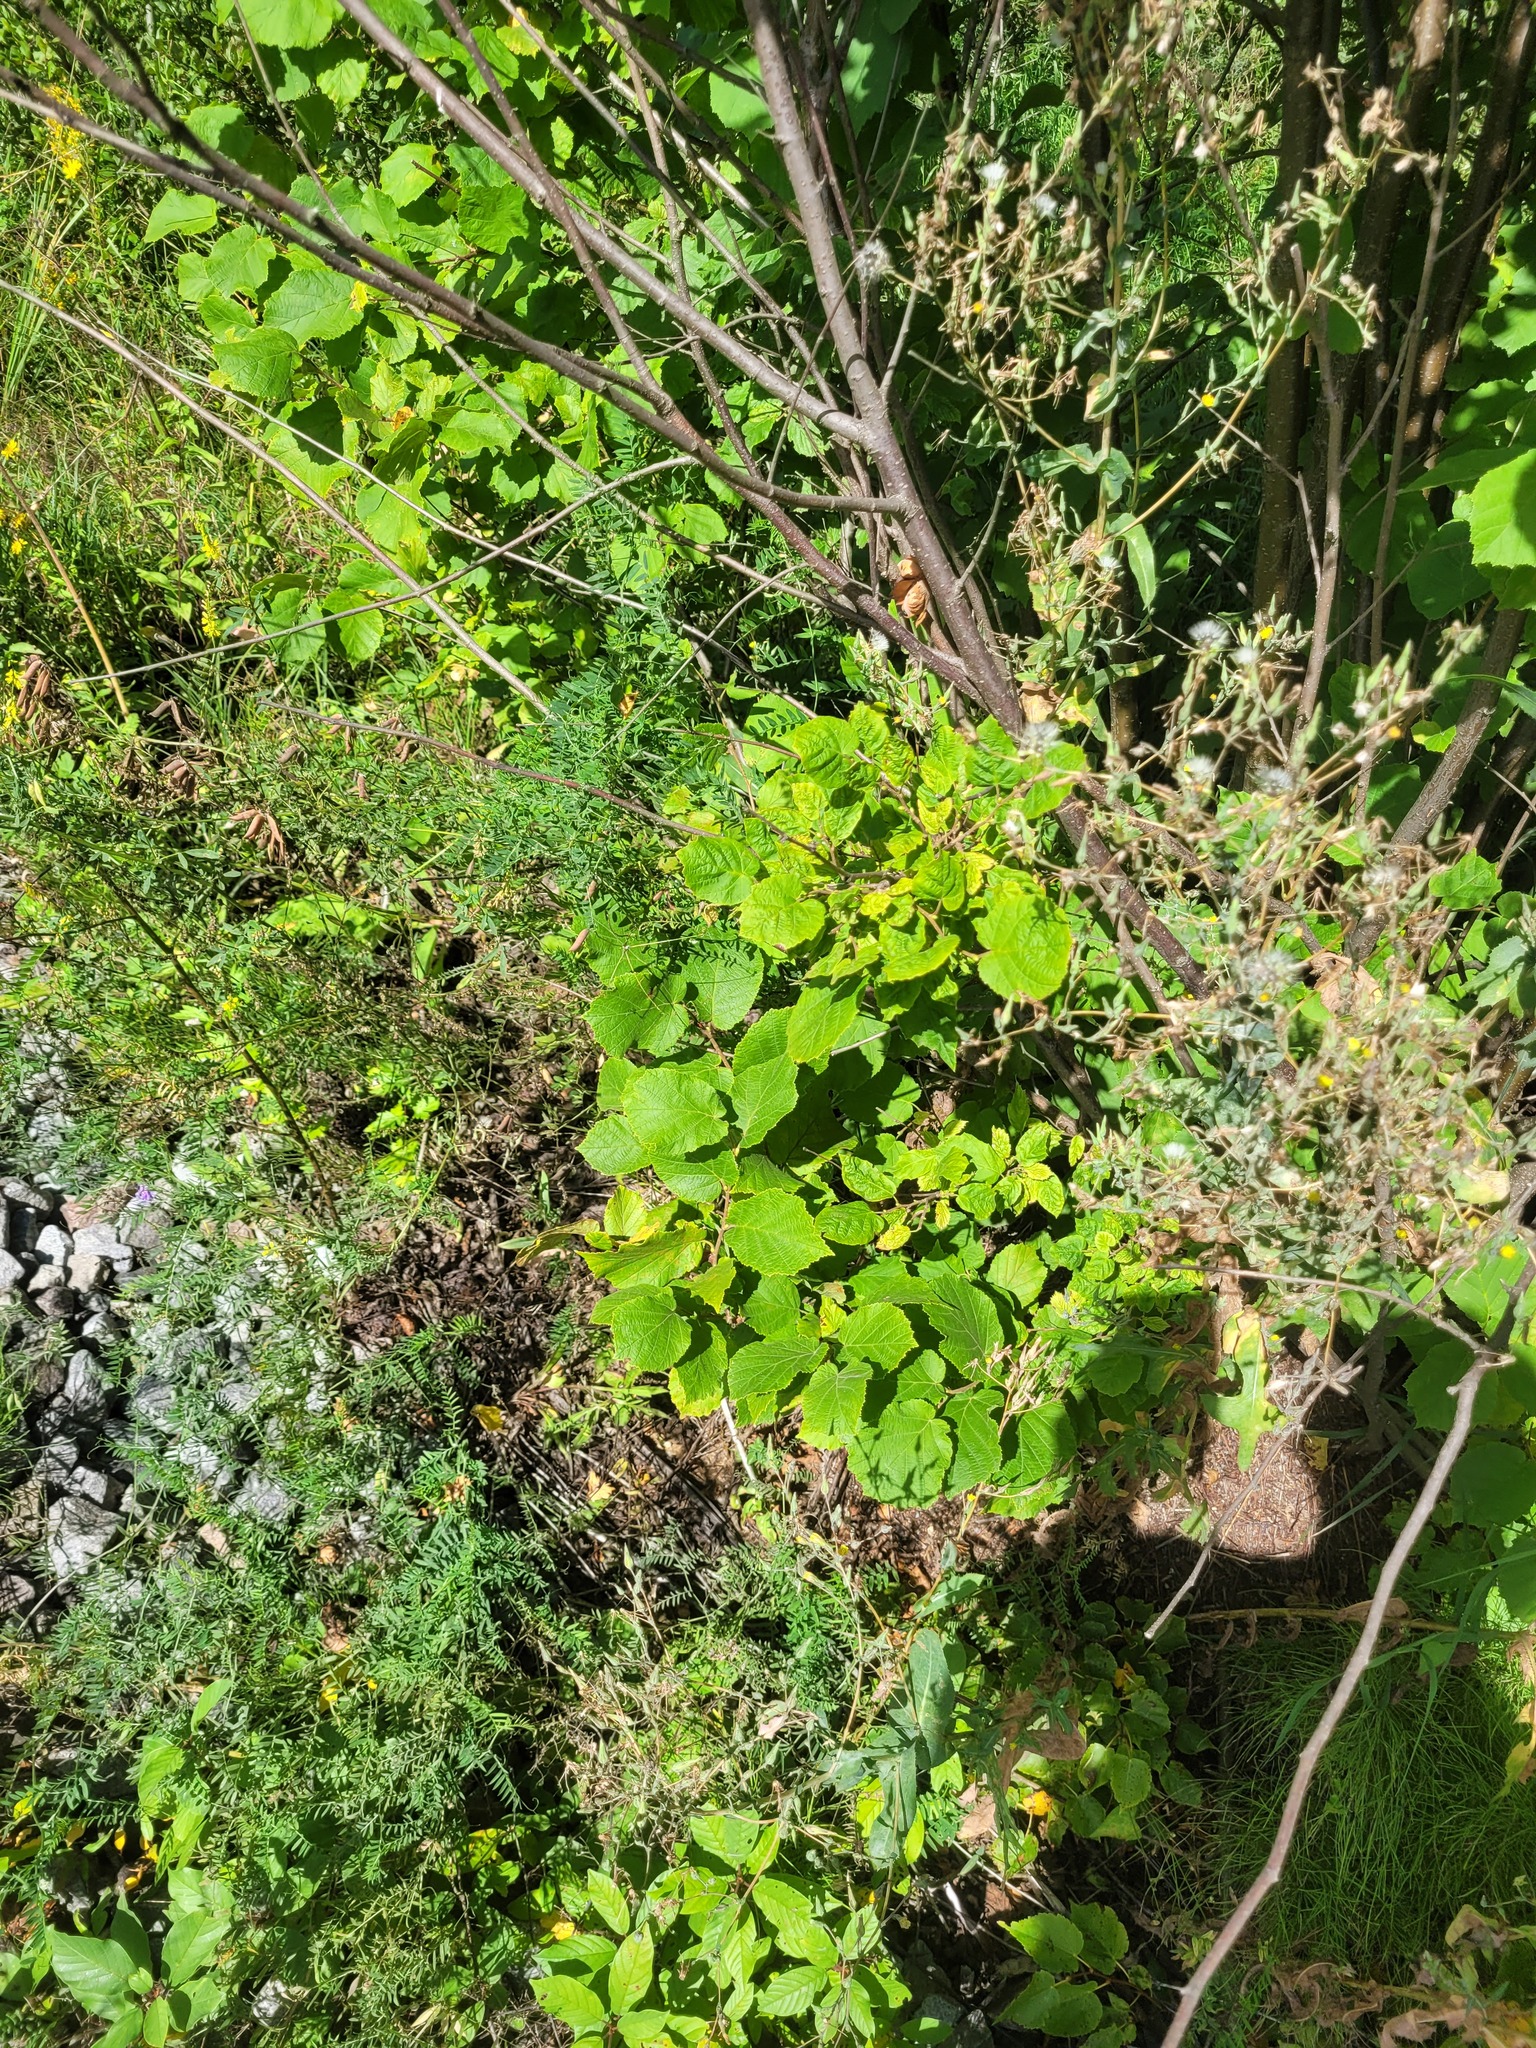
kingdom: Plantae
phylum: Tracheophyta
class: Magnoliopsida
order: Fagales
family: Betulaceae
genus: Corylus
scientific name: Corylus avellana
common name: European hazel
